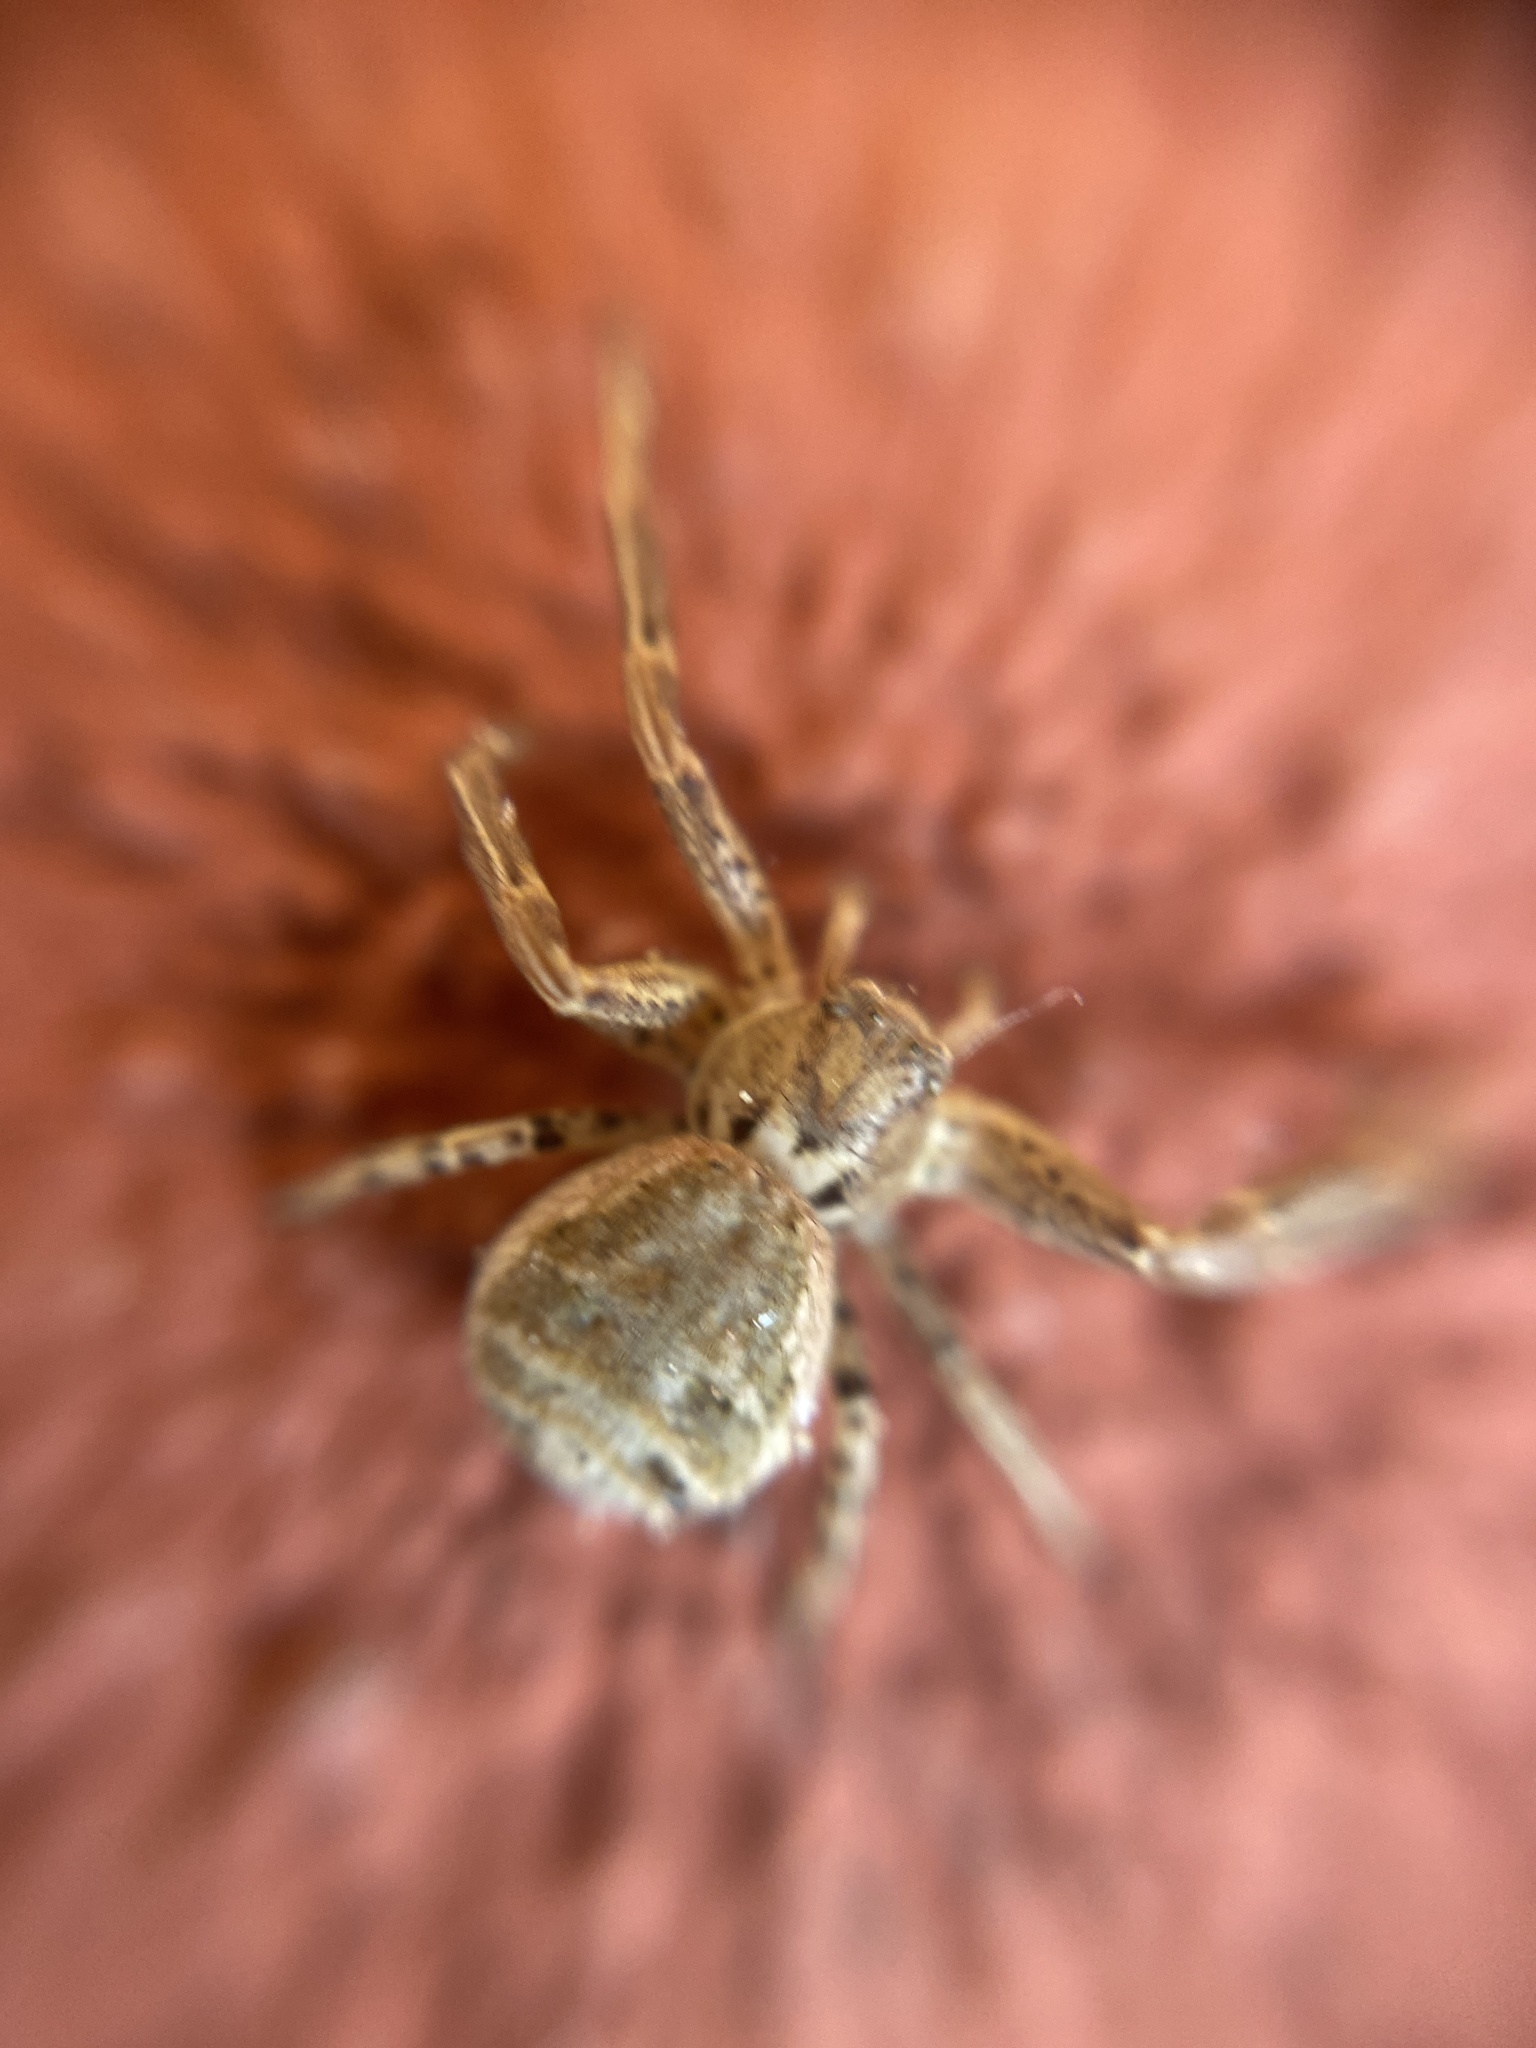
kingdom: Animalia
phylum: Arthropoda
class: Arachnida
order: Araneae
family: Thomisidae
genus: Xysticus
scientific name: Xysticus
